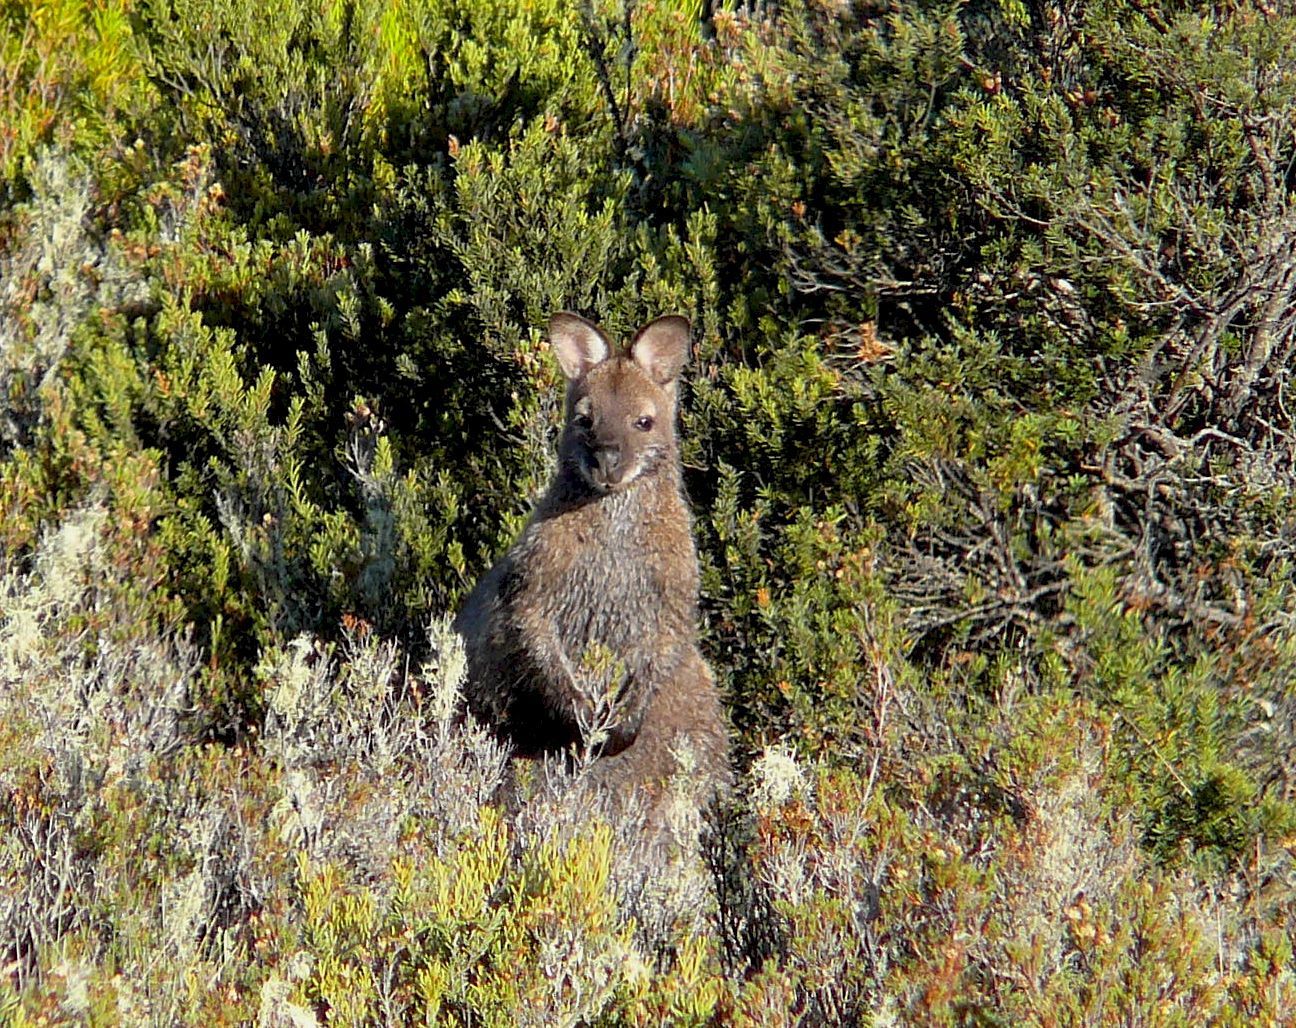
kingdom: Animalia
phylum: Chordata
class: Mammalia
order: Diprotodontia
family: Macropodidae
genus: Notamacropus
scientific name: Notamacropus rufogriseus
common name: Red-necked wallaby
